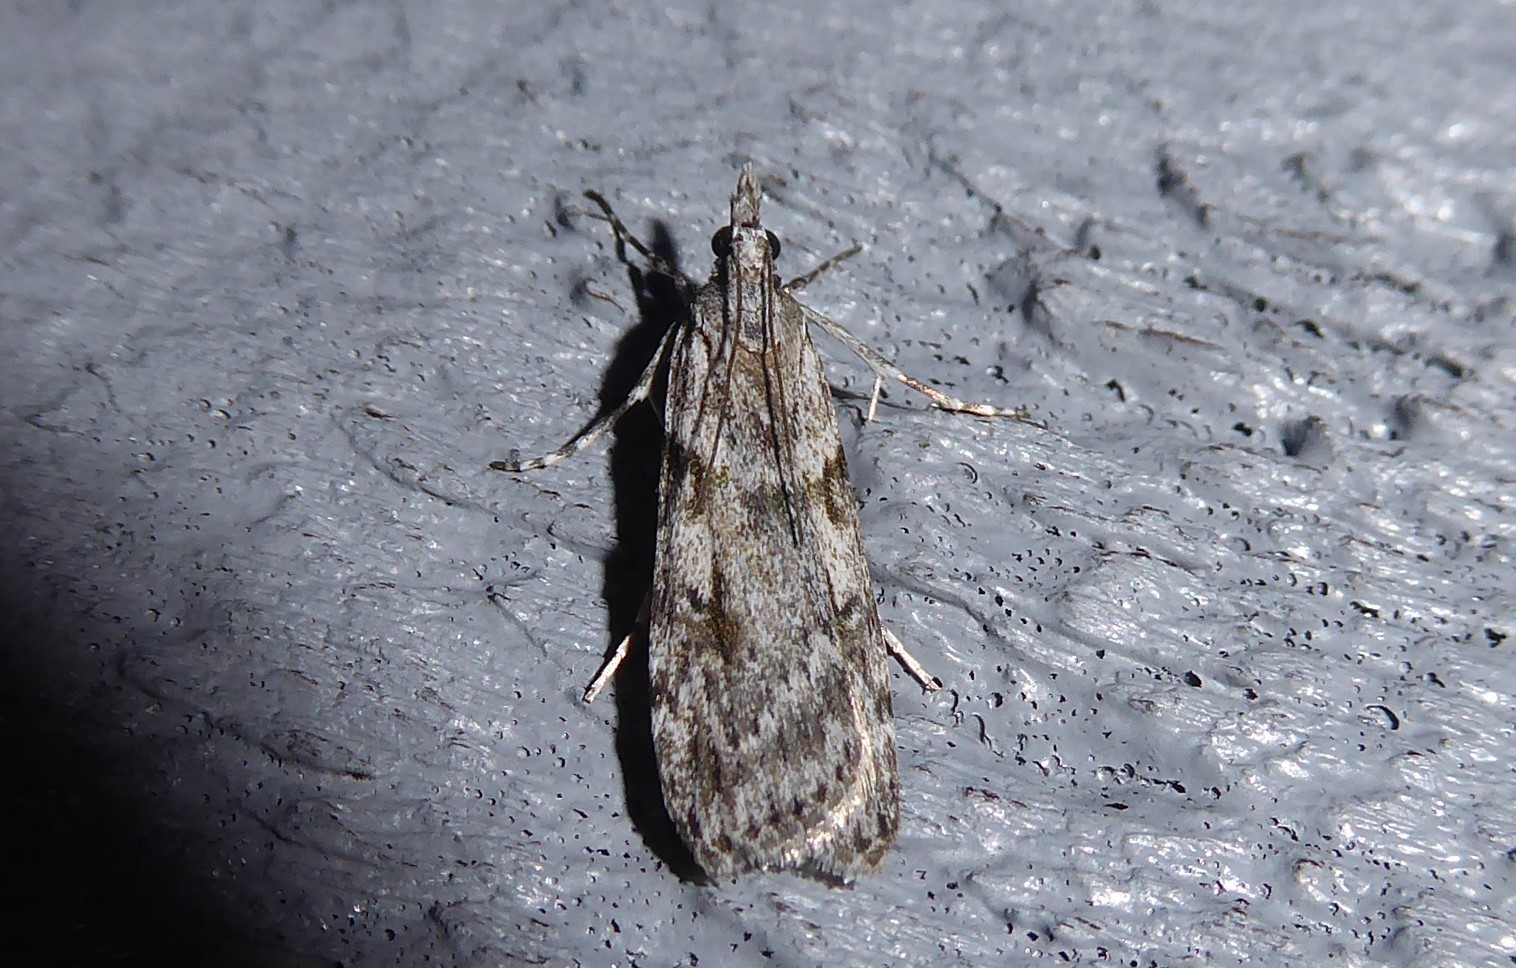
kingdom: Animalia
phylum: Arthropoda
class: Insecta
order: Lepidoptera
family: Crambidae
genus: Scoparia
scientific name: Scoparia halopis
